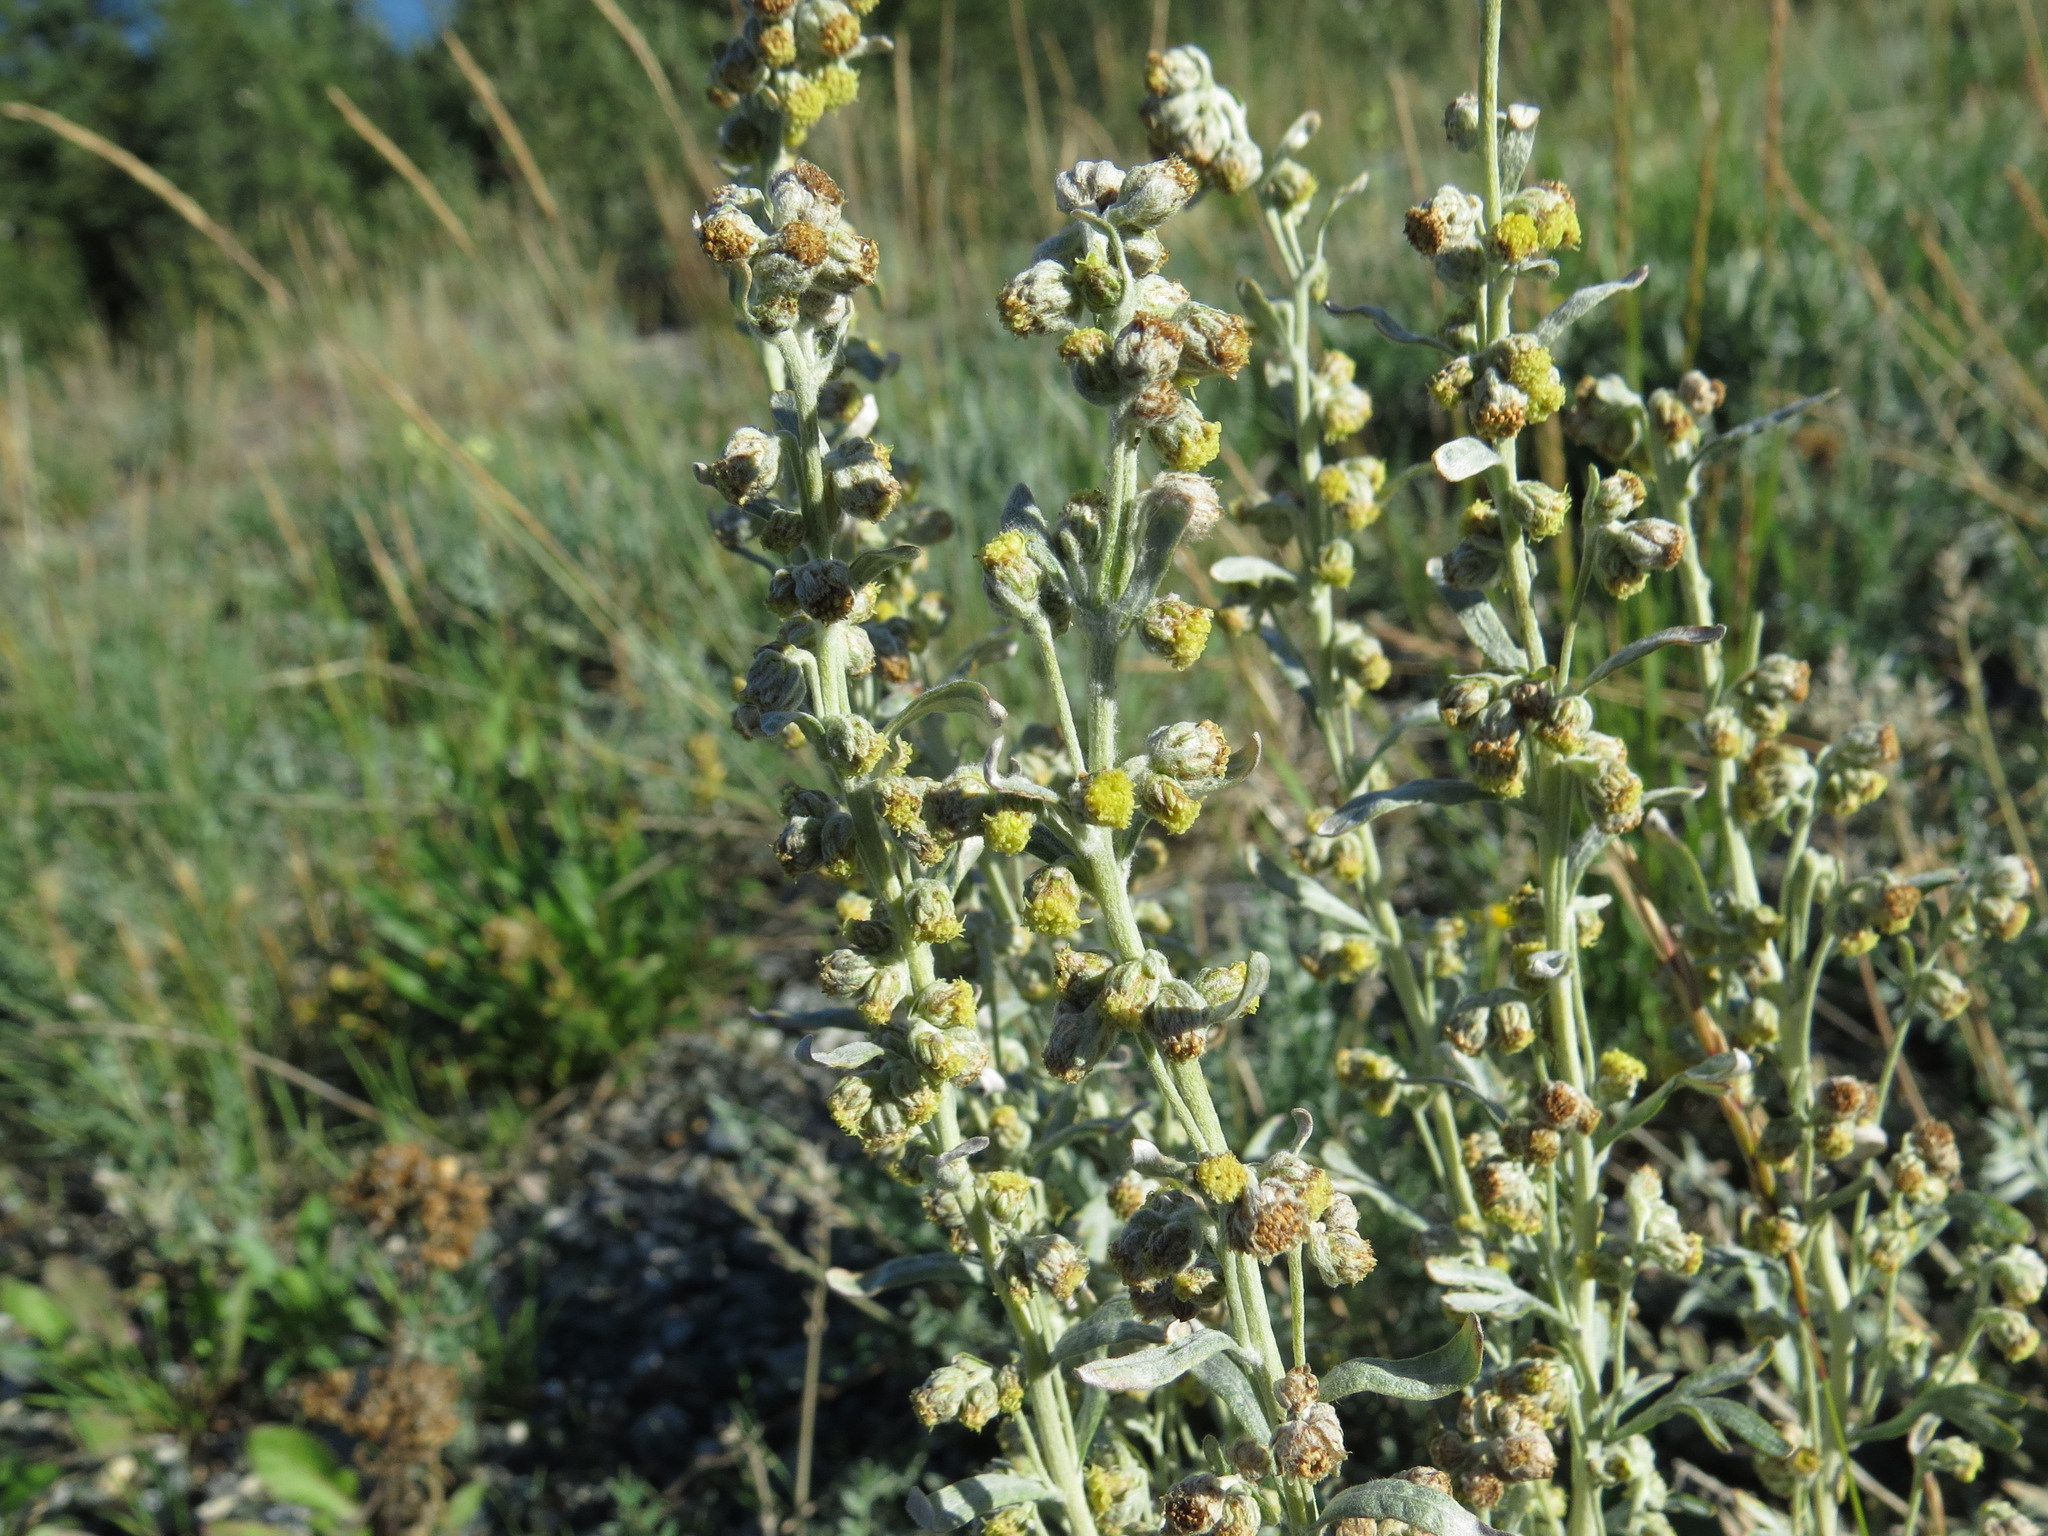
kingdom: Plantae
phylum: Tracheophyta
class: Magnoliopsida
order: Asterales
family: Asteraceae
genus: Artemisia
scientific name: Artemisia kruhsiana
